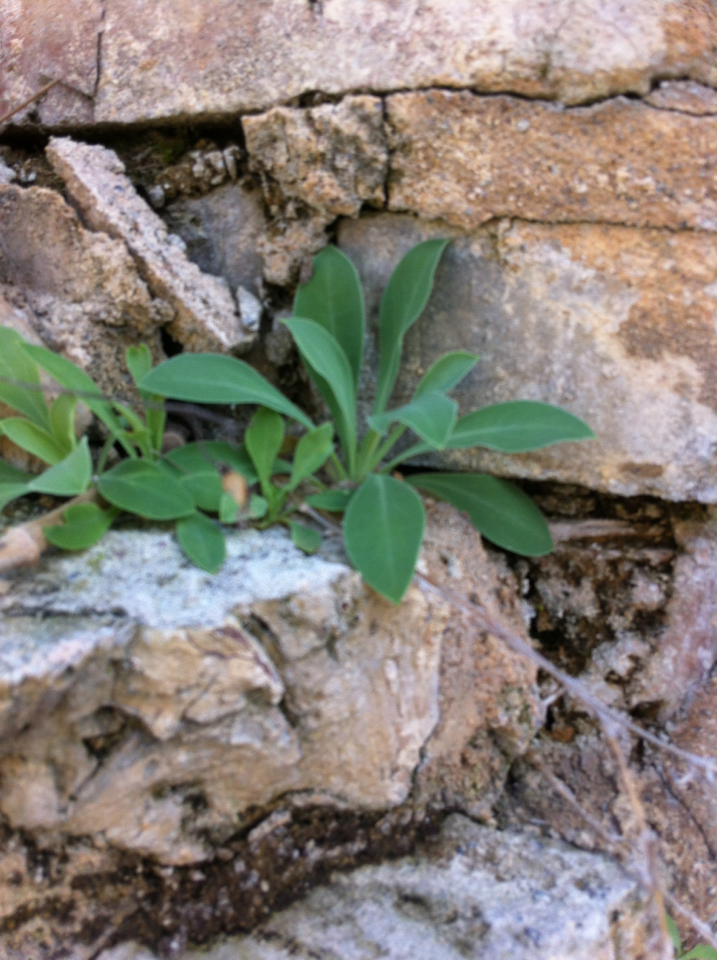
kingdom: Plantae
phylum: Tracheophyta
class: Magnoliopsida
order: Caryophyllales
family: Caryophyllaceae
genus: Silene
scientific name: Silene csereii
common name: Balkan catchfly
